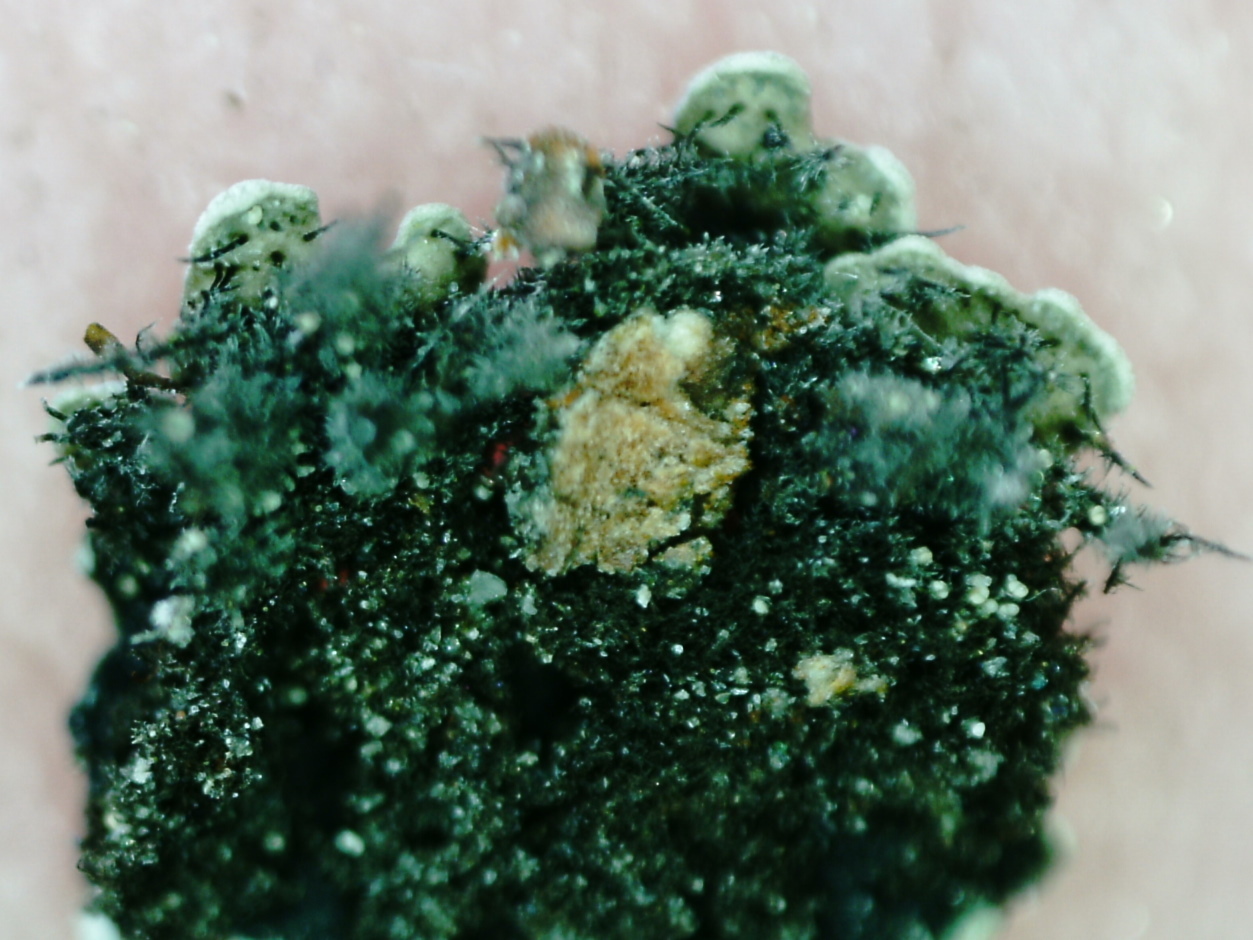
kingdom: Fungi
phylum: Ascomycota
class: Lecanoromycetes
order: Caliciales
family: Physciaceae
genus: Physconia
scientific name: Physconia distorta
